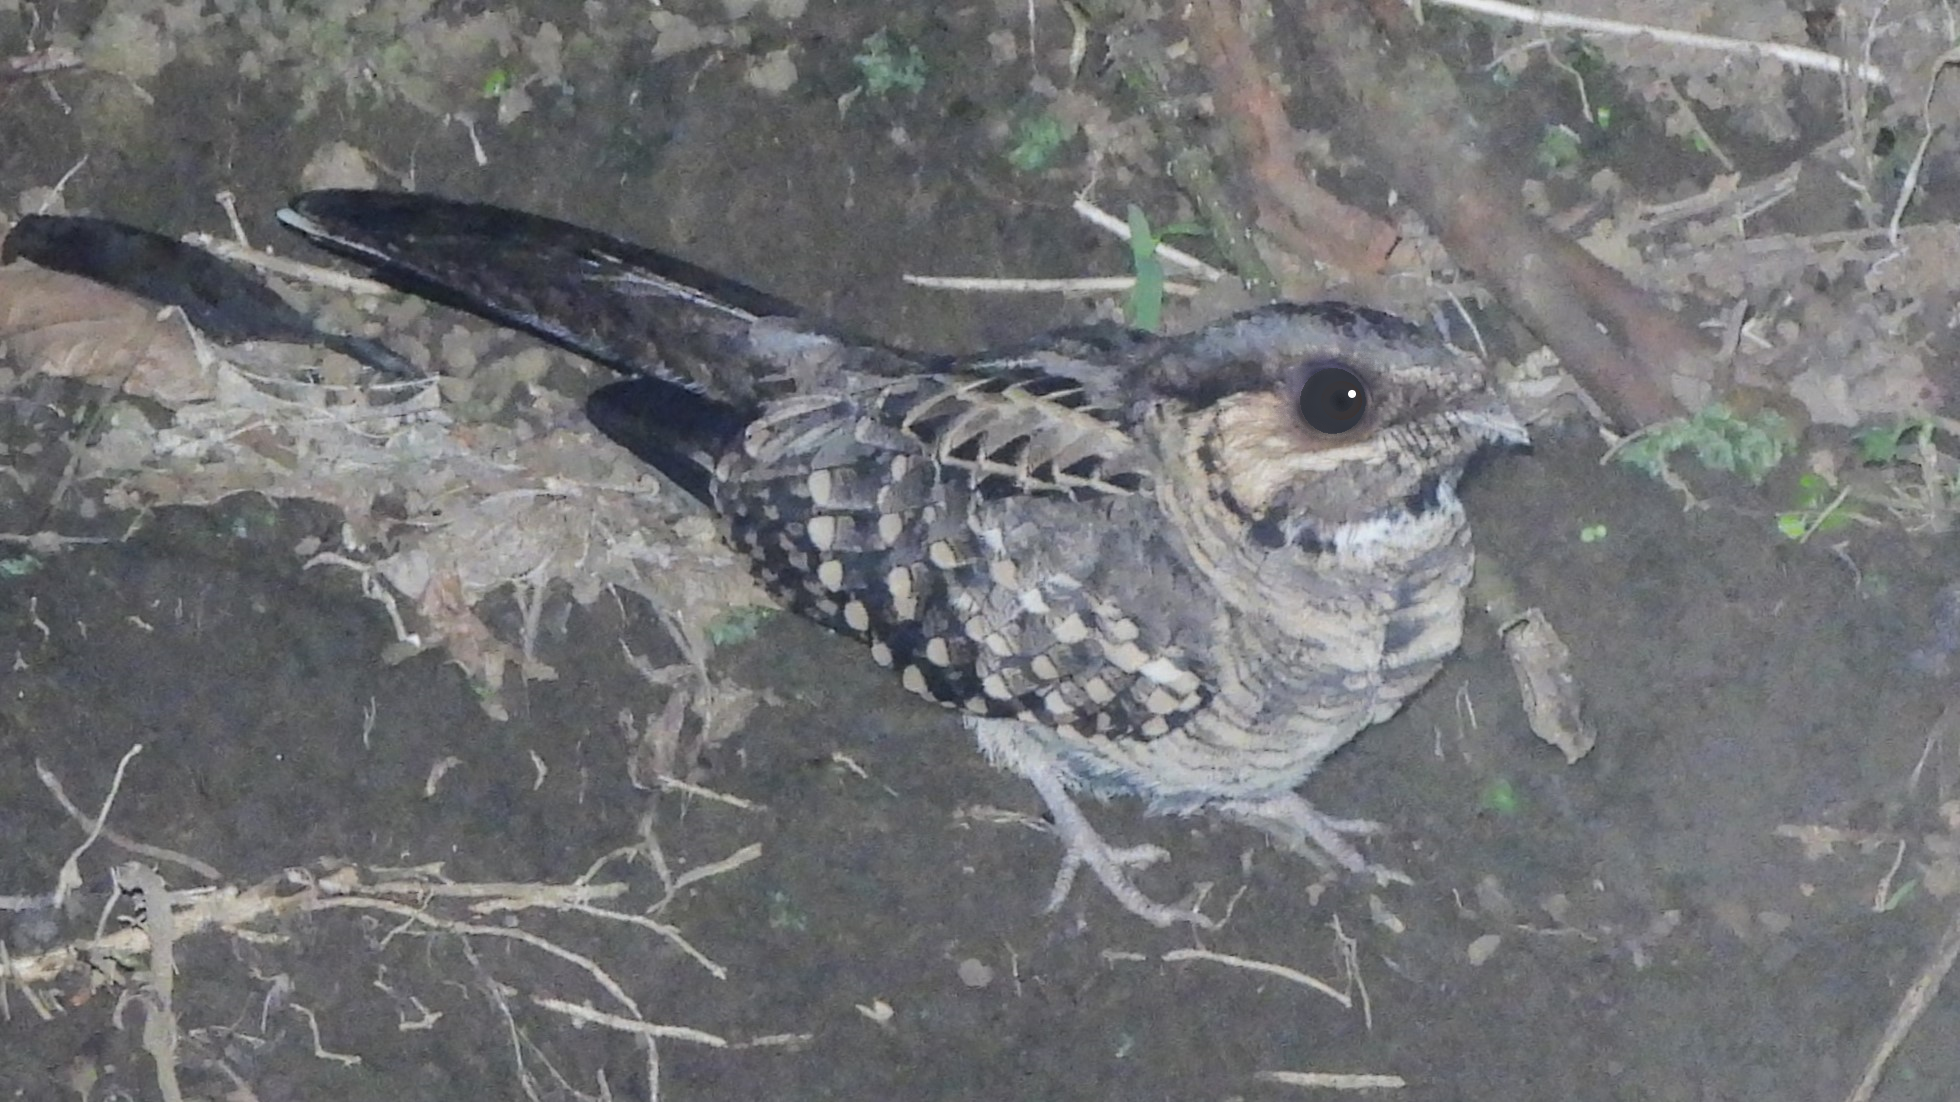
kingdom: Animalia
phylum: Chordata
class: Aves
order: Caprimulgiformes
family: Caprimulgidae
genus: Nyctidromus
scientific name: Nyctidromus albicollis
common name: Pauraque
